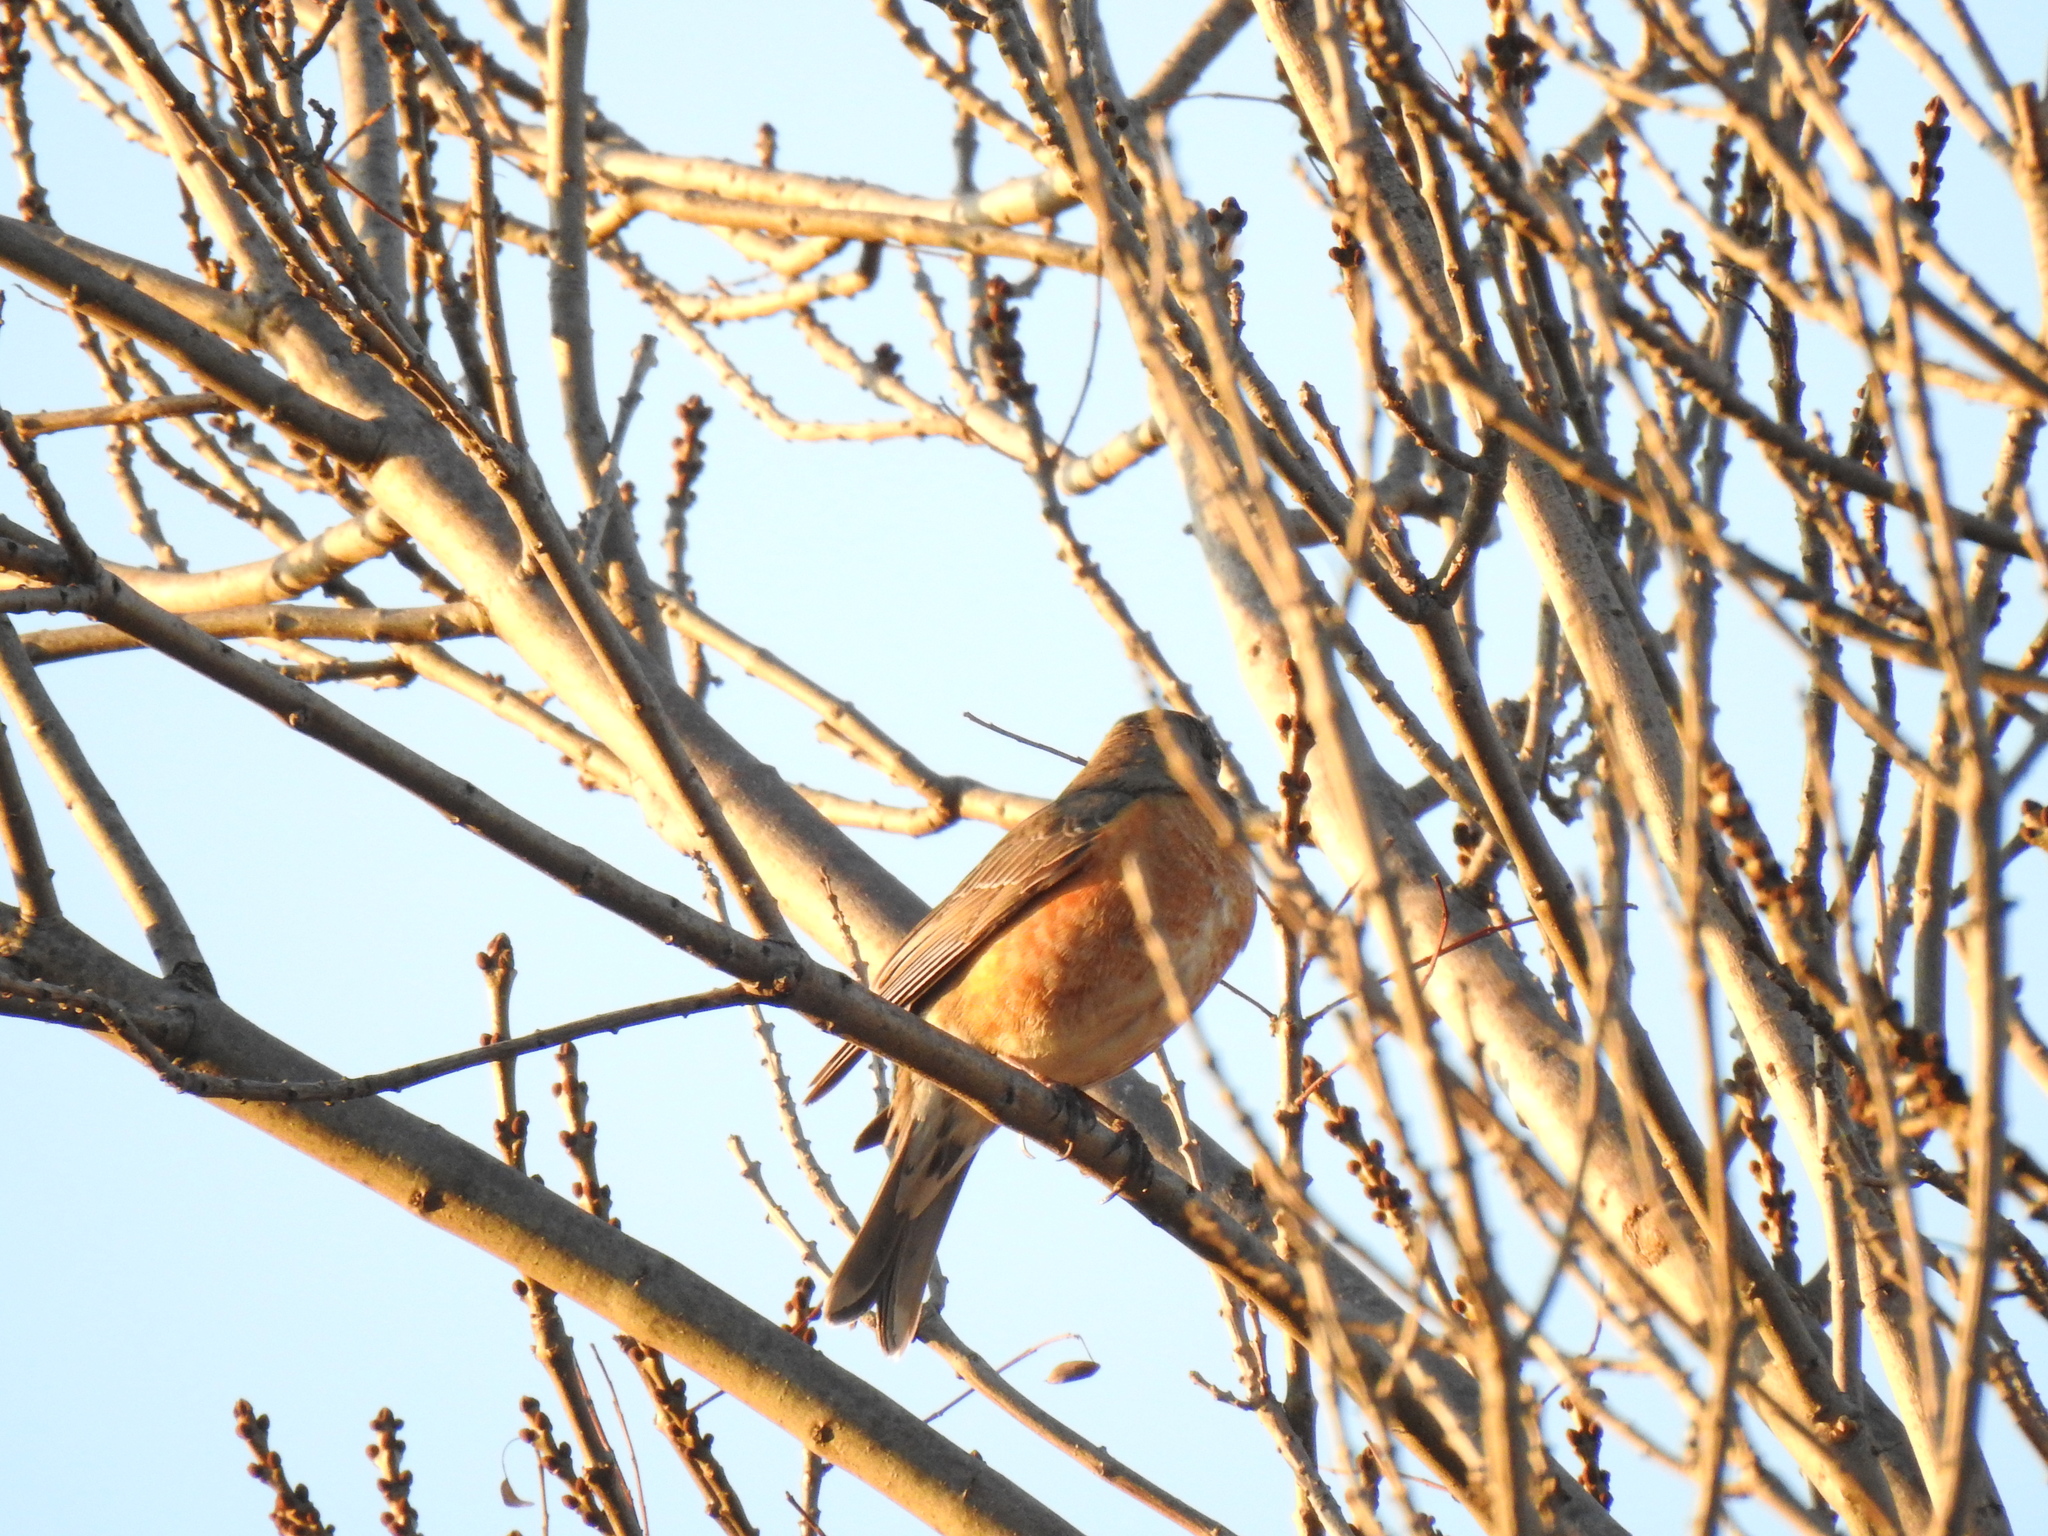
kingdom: Animalia
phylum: Chordata
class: Aves
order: Passeriformes
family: Turdidae
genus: Turdus
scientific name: Turdus migratorius
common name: American robin
